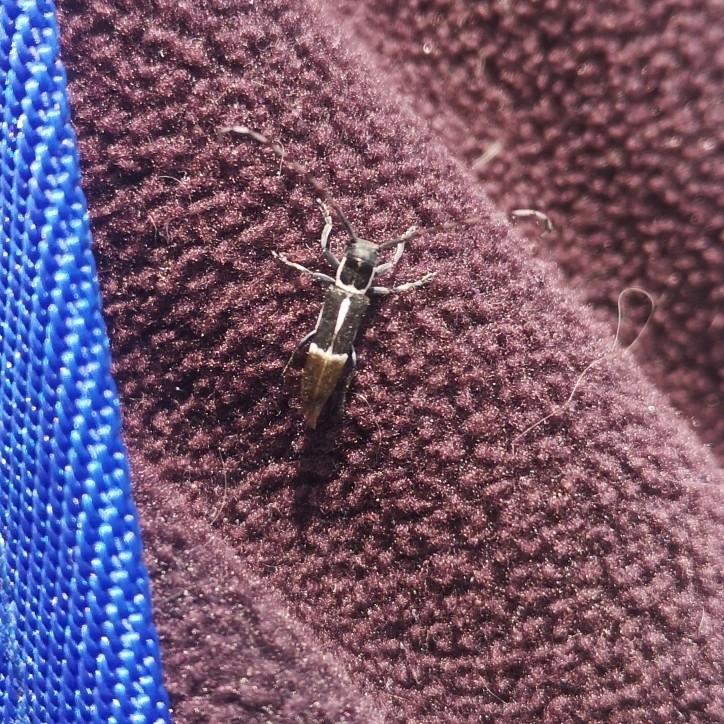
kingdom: Animalia
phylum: Arthropoda
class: Insecta
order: Coleoptera
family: Cerambycidae
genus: Emphytoecia
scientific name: Emphytoecia alboliturata
